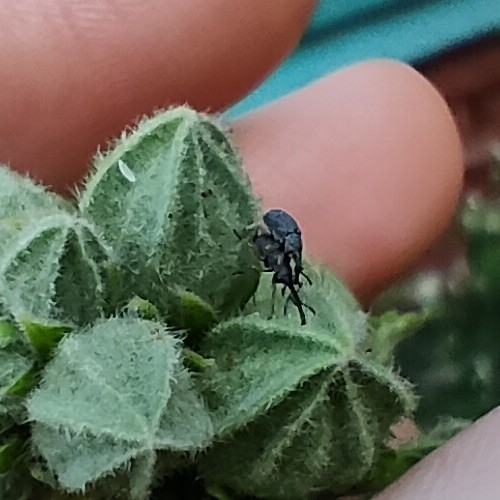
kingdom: Animalia
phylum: Arthropoda
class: Insecta
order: Coleoptera
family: Brentidae
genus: Rhopalapion
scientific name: Rhopalapion longirostre
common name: Hollyhock weevil
